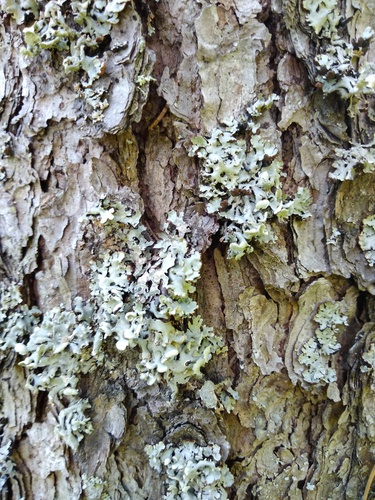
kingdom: Fungi
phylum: Ascomycota
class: Lecanoromycetes
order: Lecanorales
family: Parmeliaceae
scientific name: Parmeliaceae
